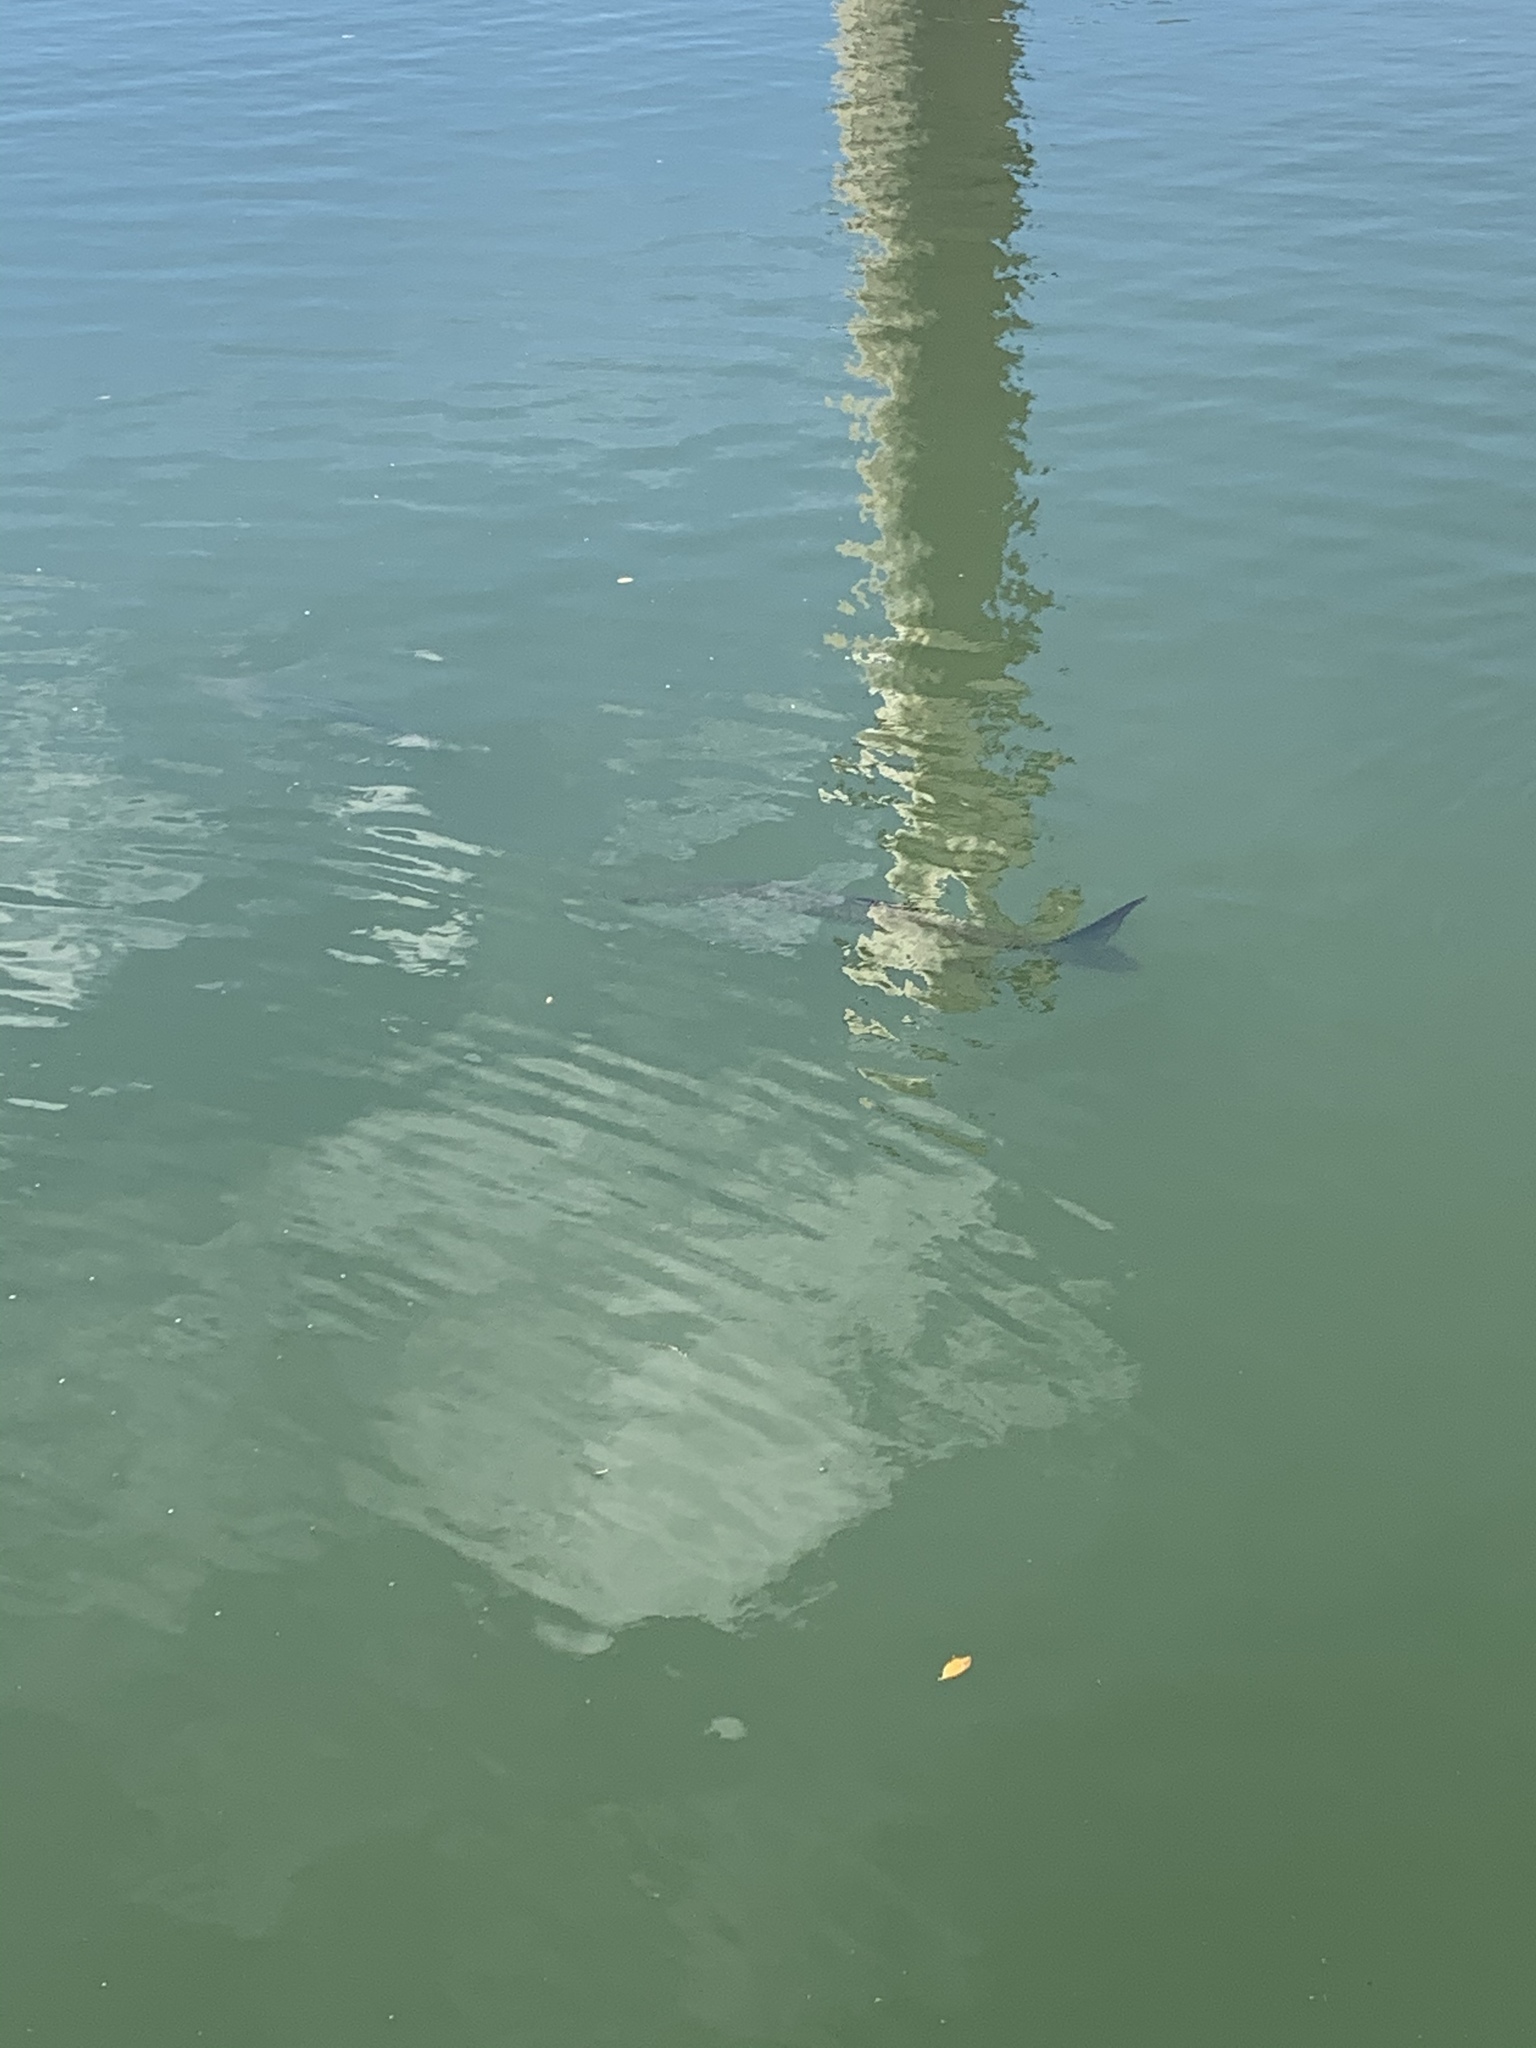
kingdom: Animalia
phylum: Chordata
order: Elopiformes
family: Megalopidae
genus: Megalops
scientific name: Megalops atlanticus
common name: Tarpon
